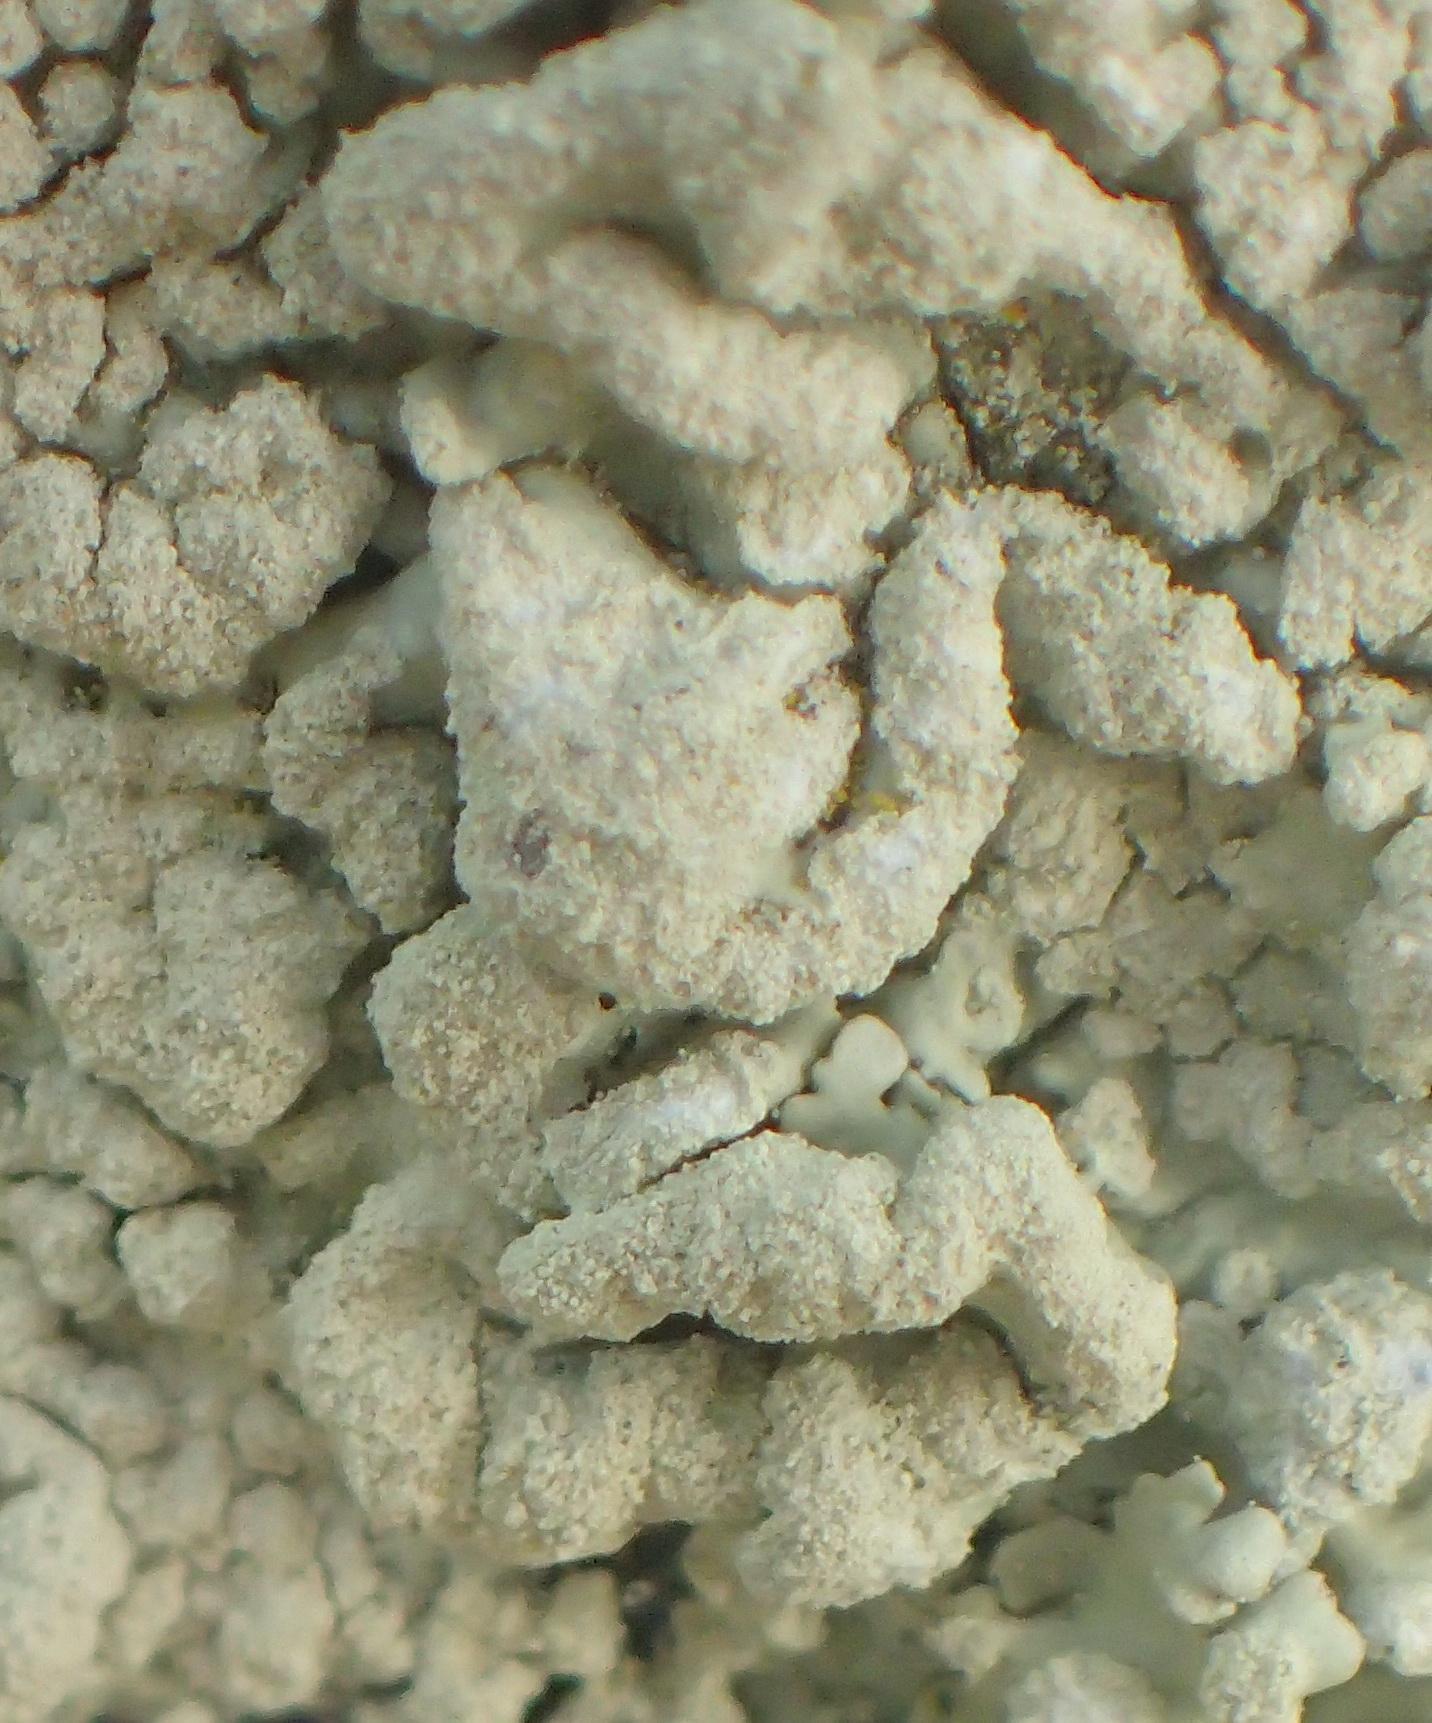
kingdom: Fungi
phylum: Ascomycota
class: Lecanoromycetes
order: Lecanorales
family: Parmeliaceae
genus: Flavoparmelia
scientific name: Flavoparmelia caperata
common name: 40-mile per hour lichen
